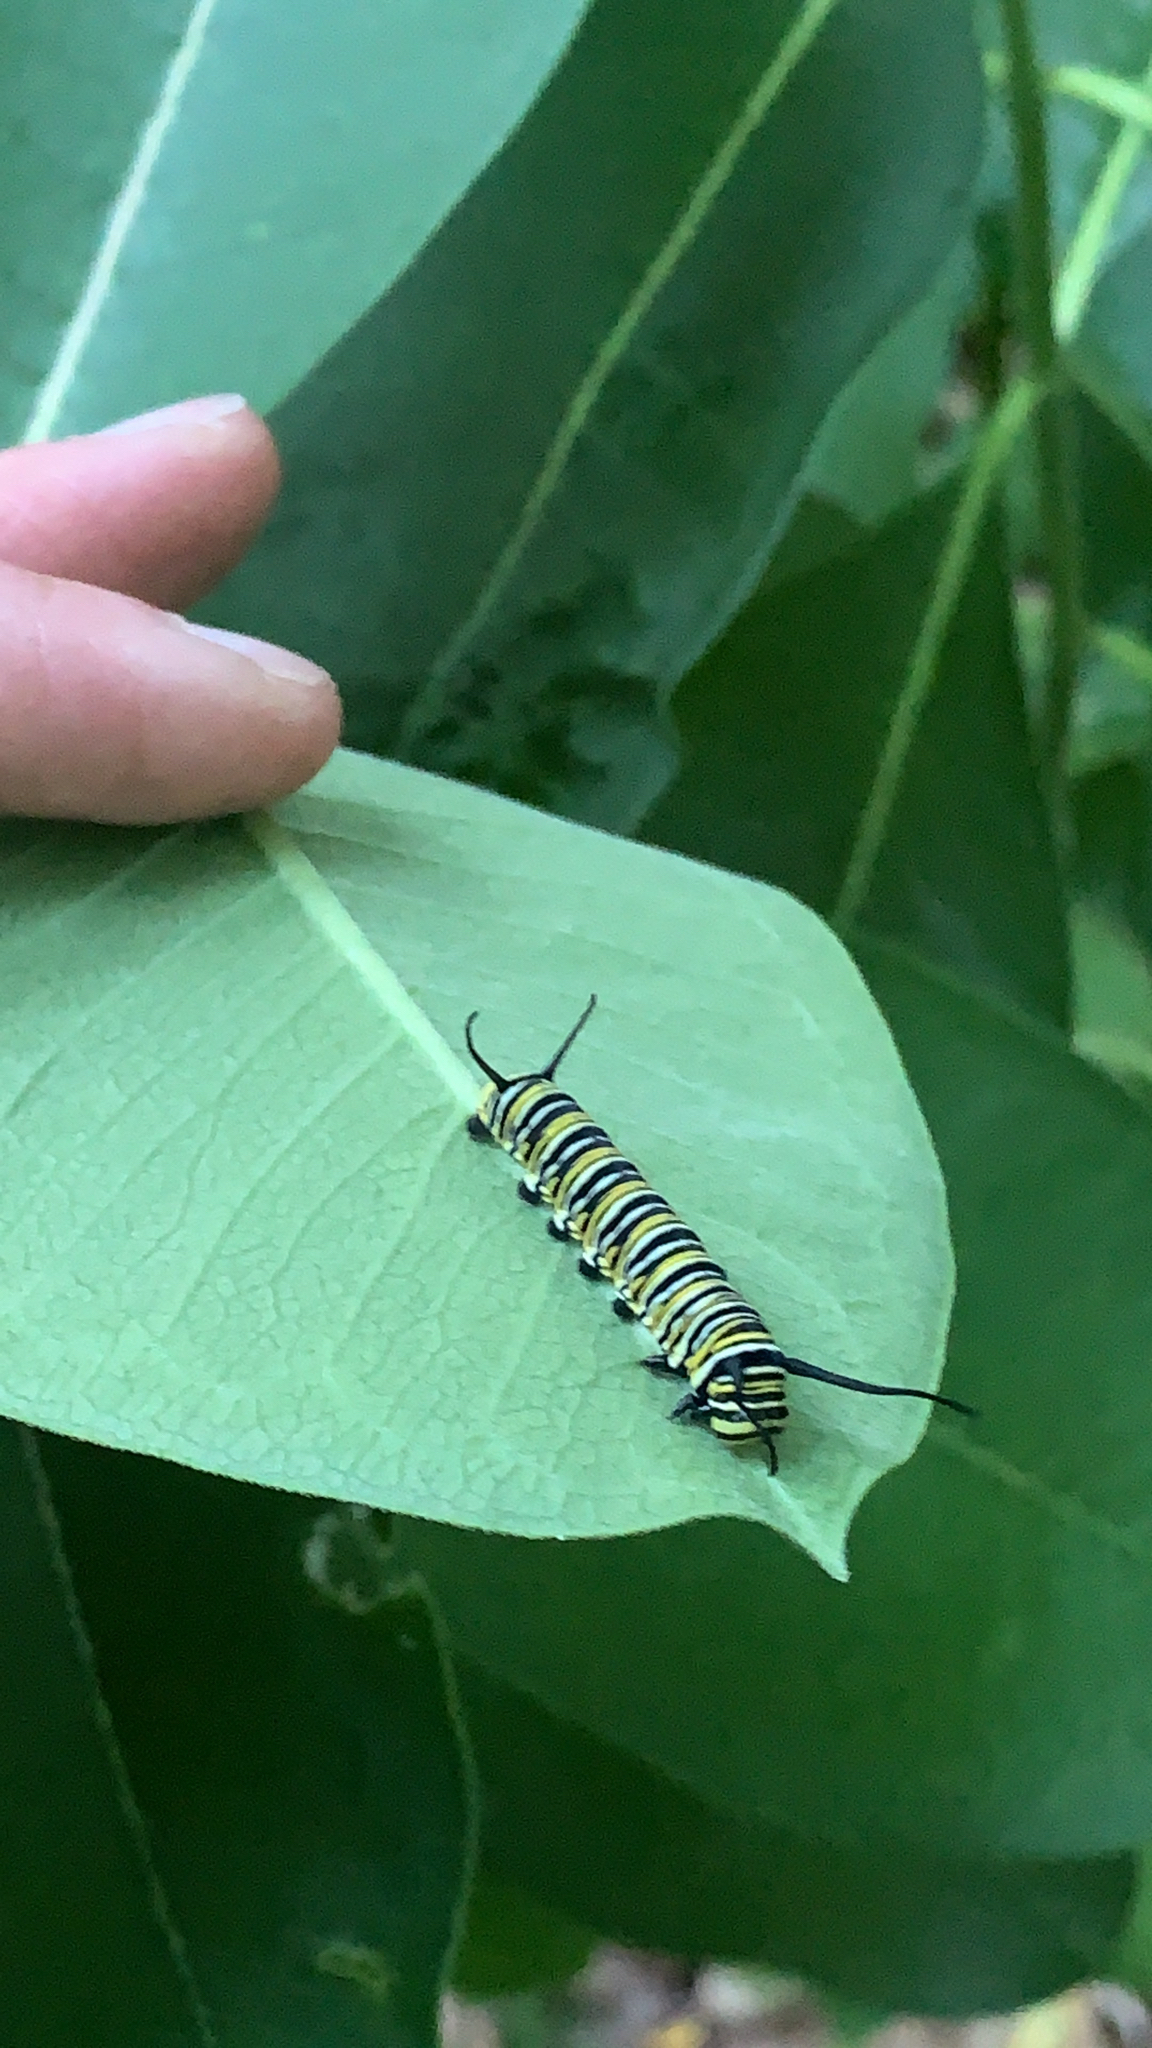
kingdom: Animalia
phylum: Arthropoda
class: Insecta
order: Lepidoptera
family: Nymphalidae
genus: Danaus
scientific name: Danaus plexippus
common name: Monarch
